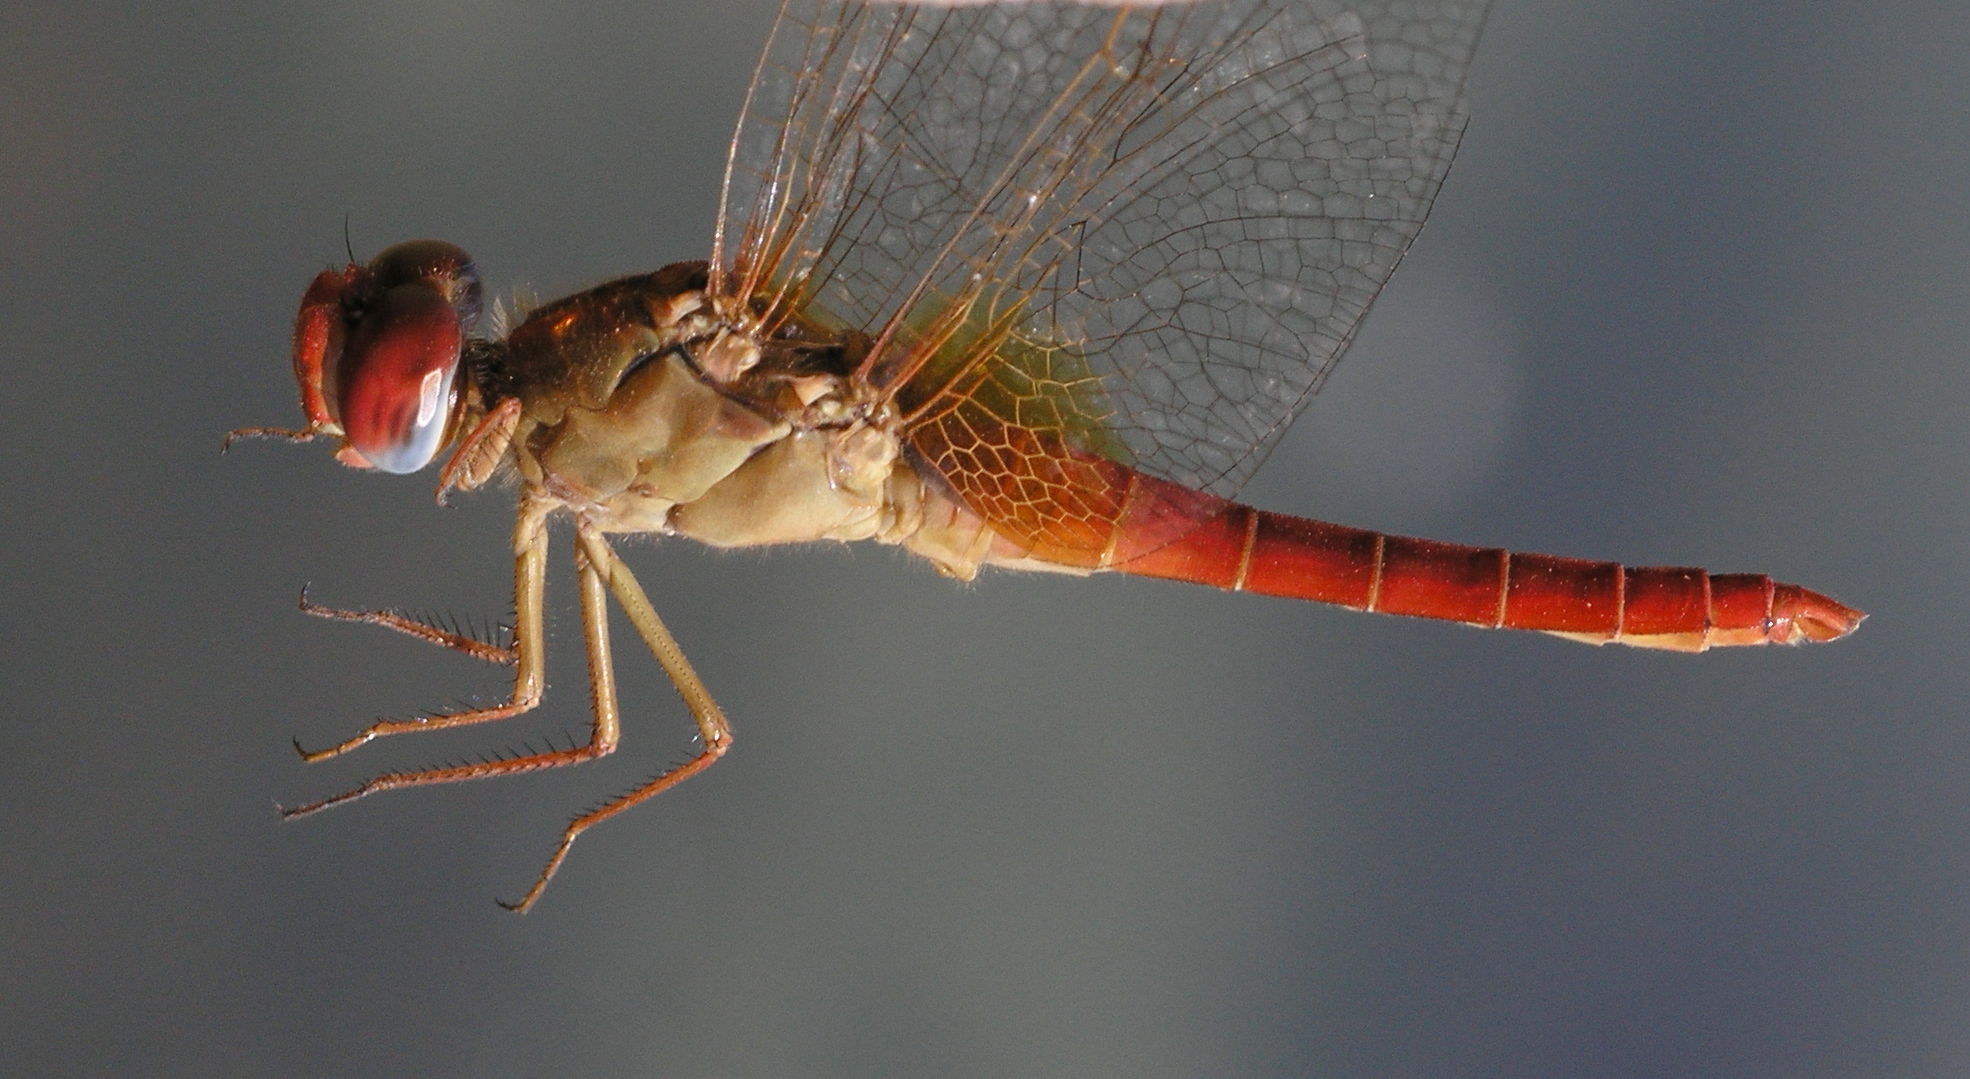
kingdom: Animalia
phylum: Arthropoda
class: Insecta
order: Odonata
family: Libellulidae
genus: Crocothemis
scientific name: Crocothemis erythraea
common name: Scarlet dragonfly
